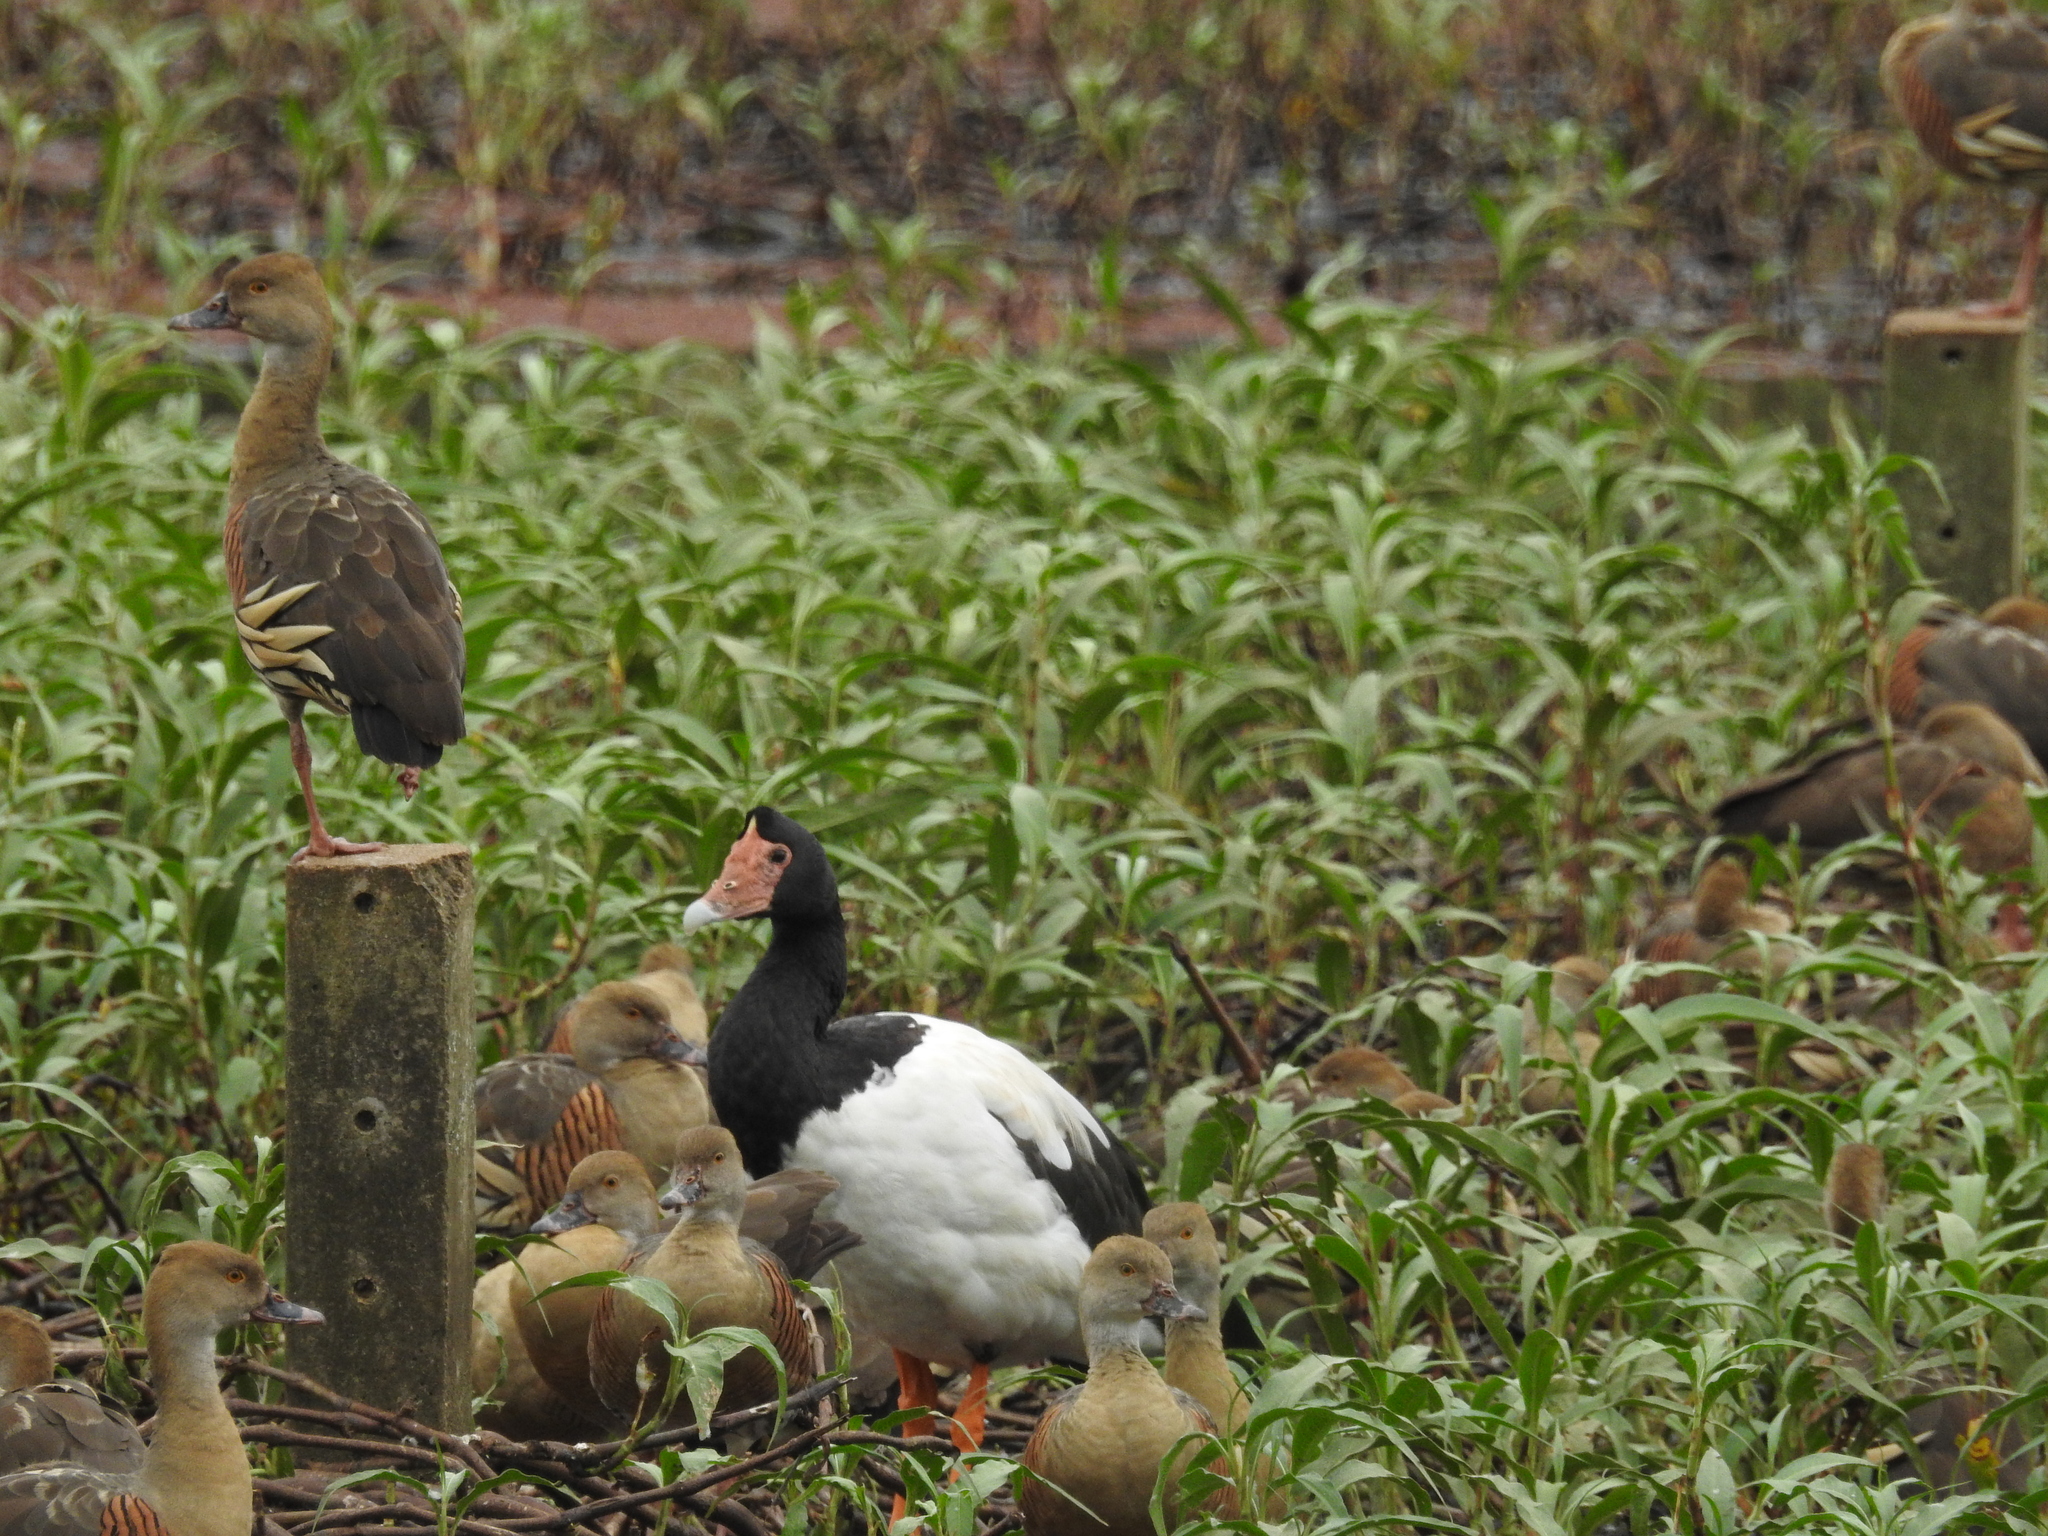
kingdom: Animalia
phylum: Chordata
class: Aves
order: Anseriformes
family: Anseranatidae
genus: Anseranas
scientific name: Anseranas semipalmata
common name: Magpie goose
